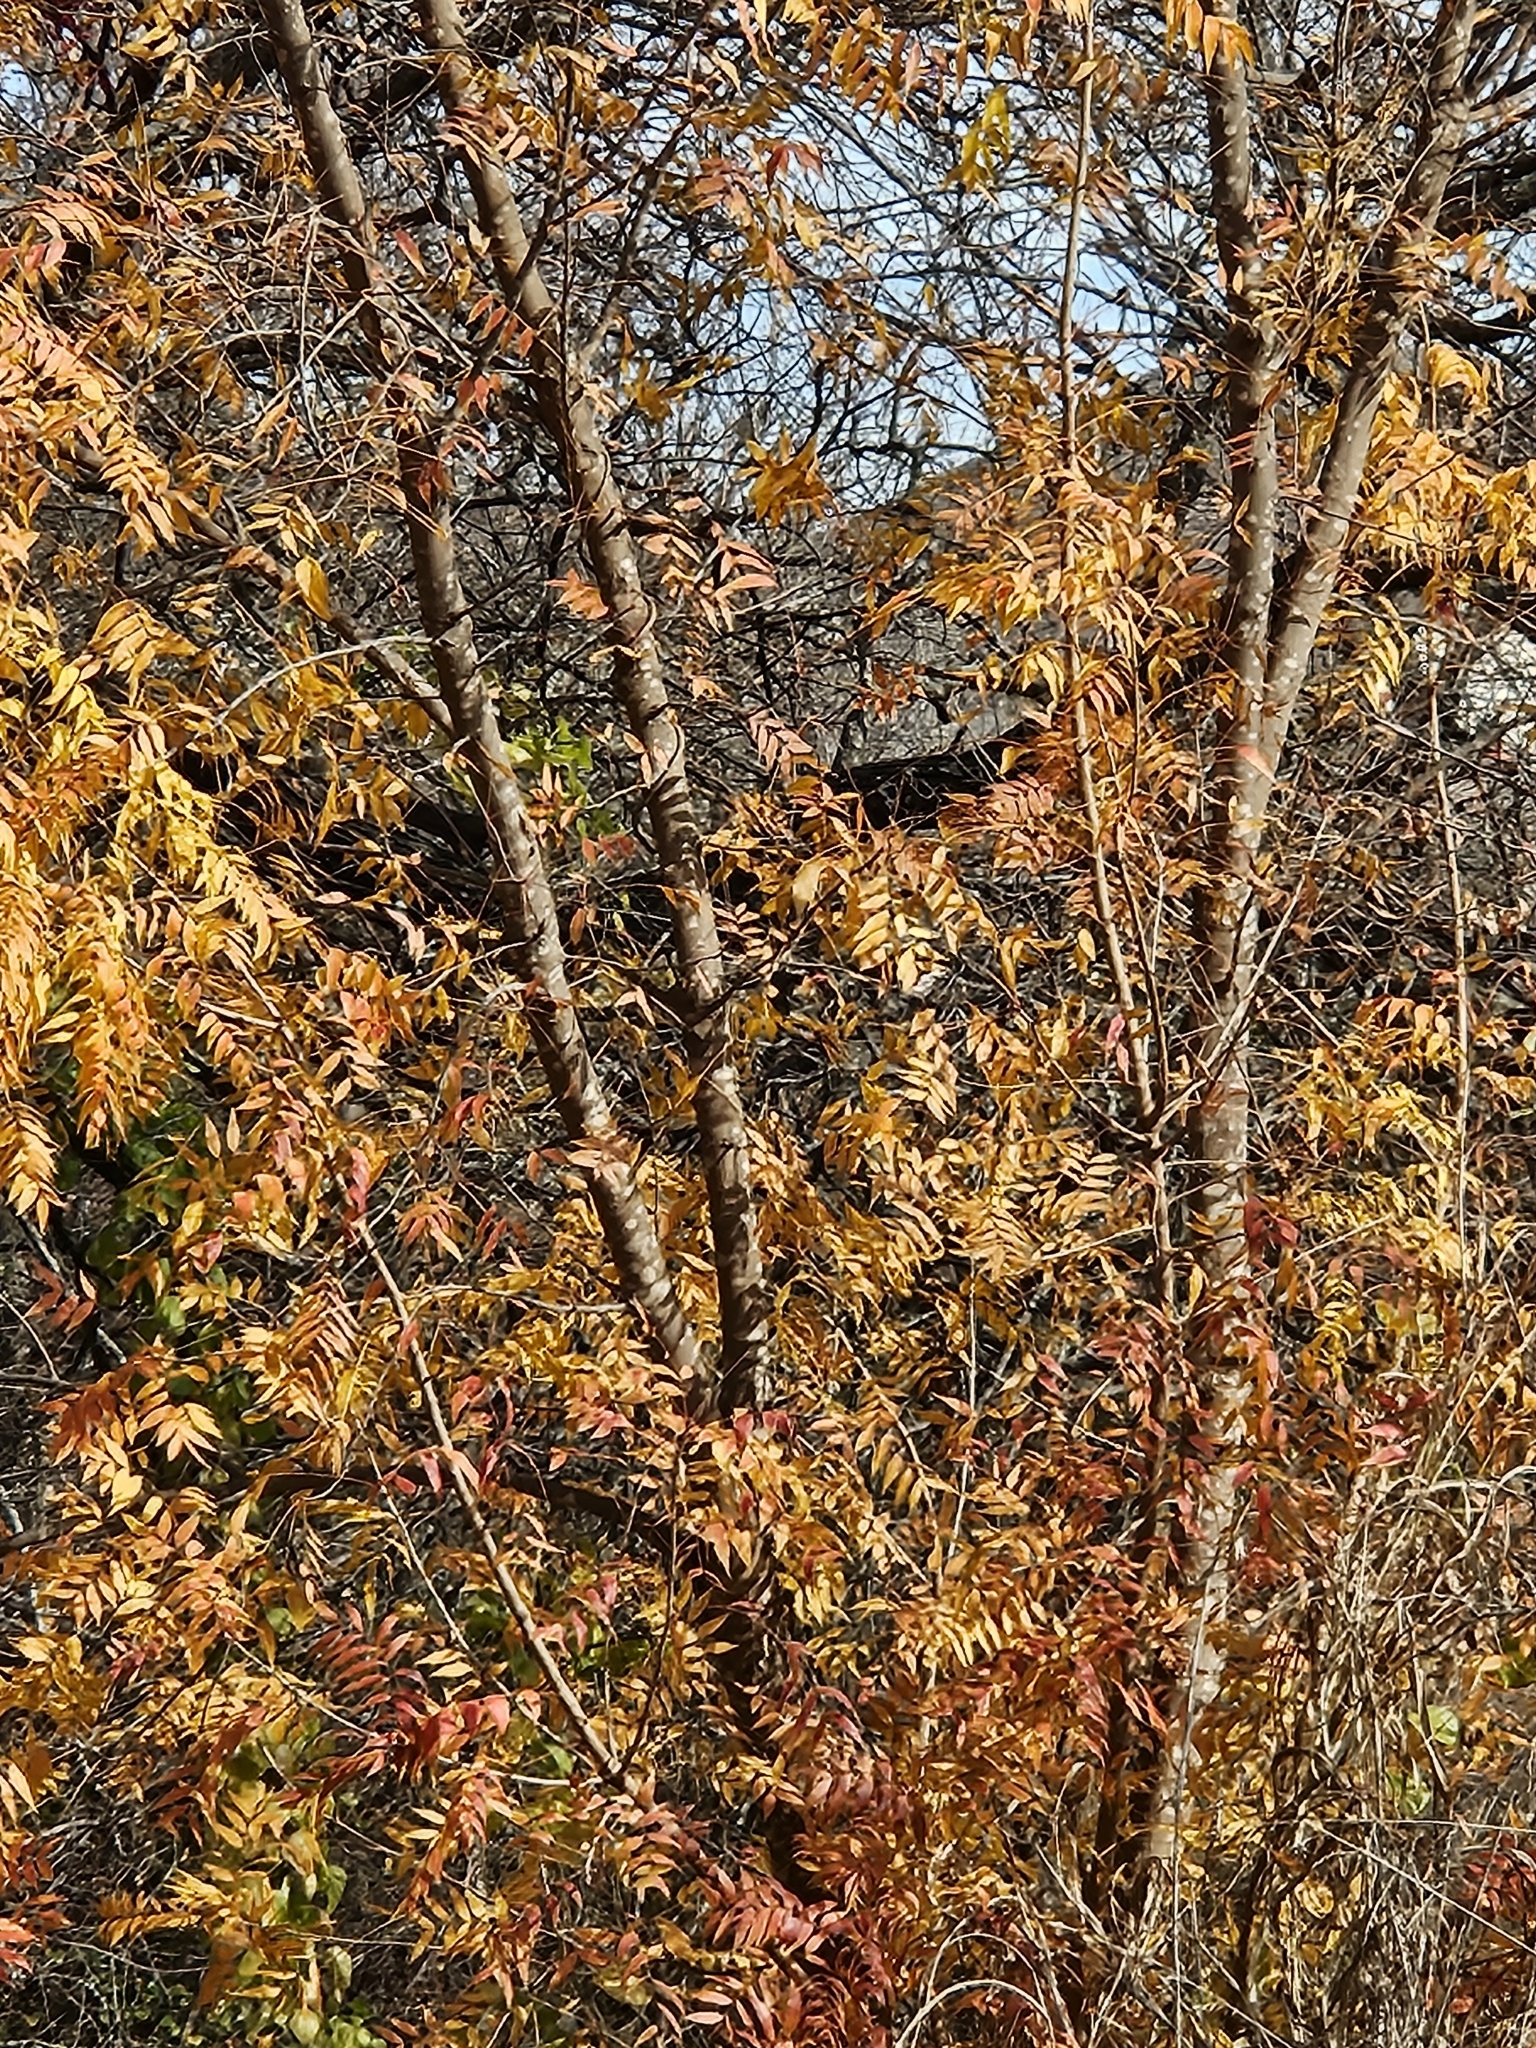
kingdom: Plantae
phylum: Tracheophyta
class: Magnoliopsida
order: Sapindales
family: Anacardiaceae
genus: Pistacia
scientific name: Pistacia chinensis
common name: Chinese pistache
